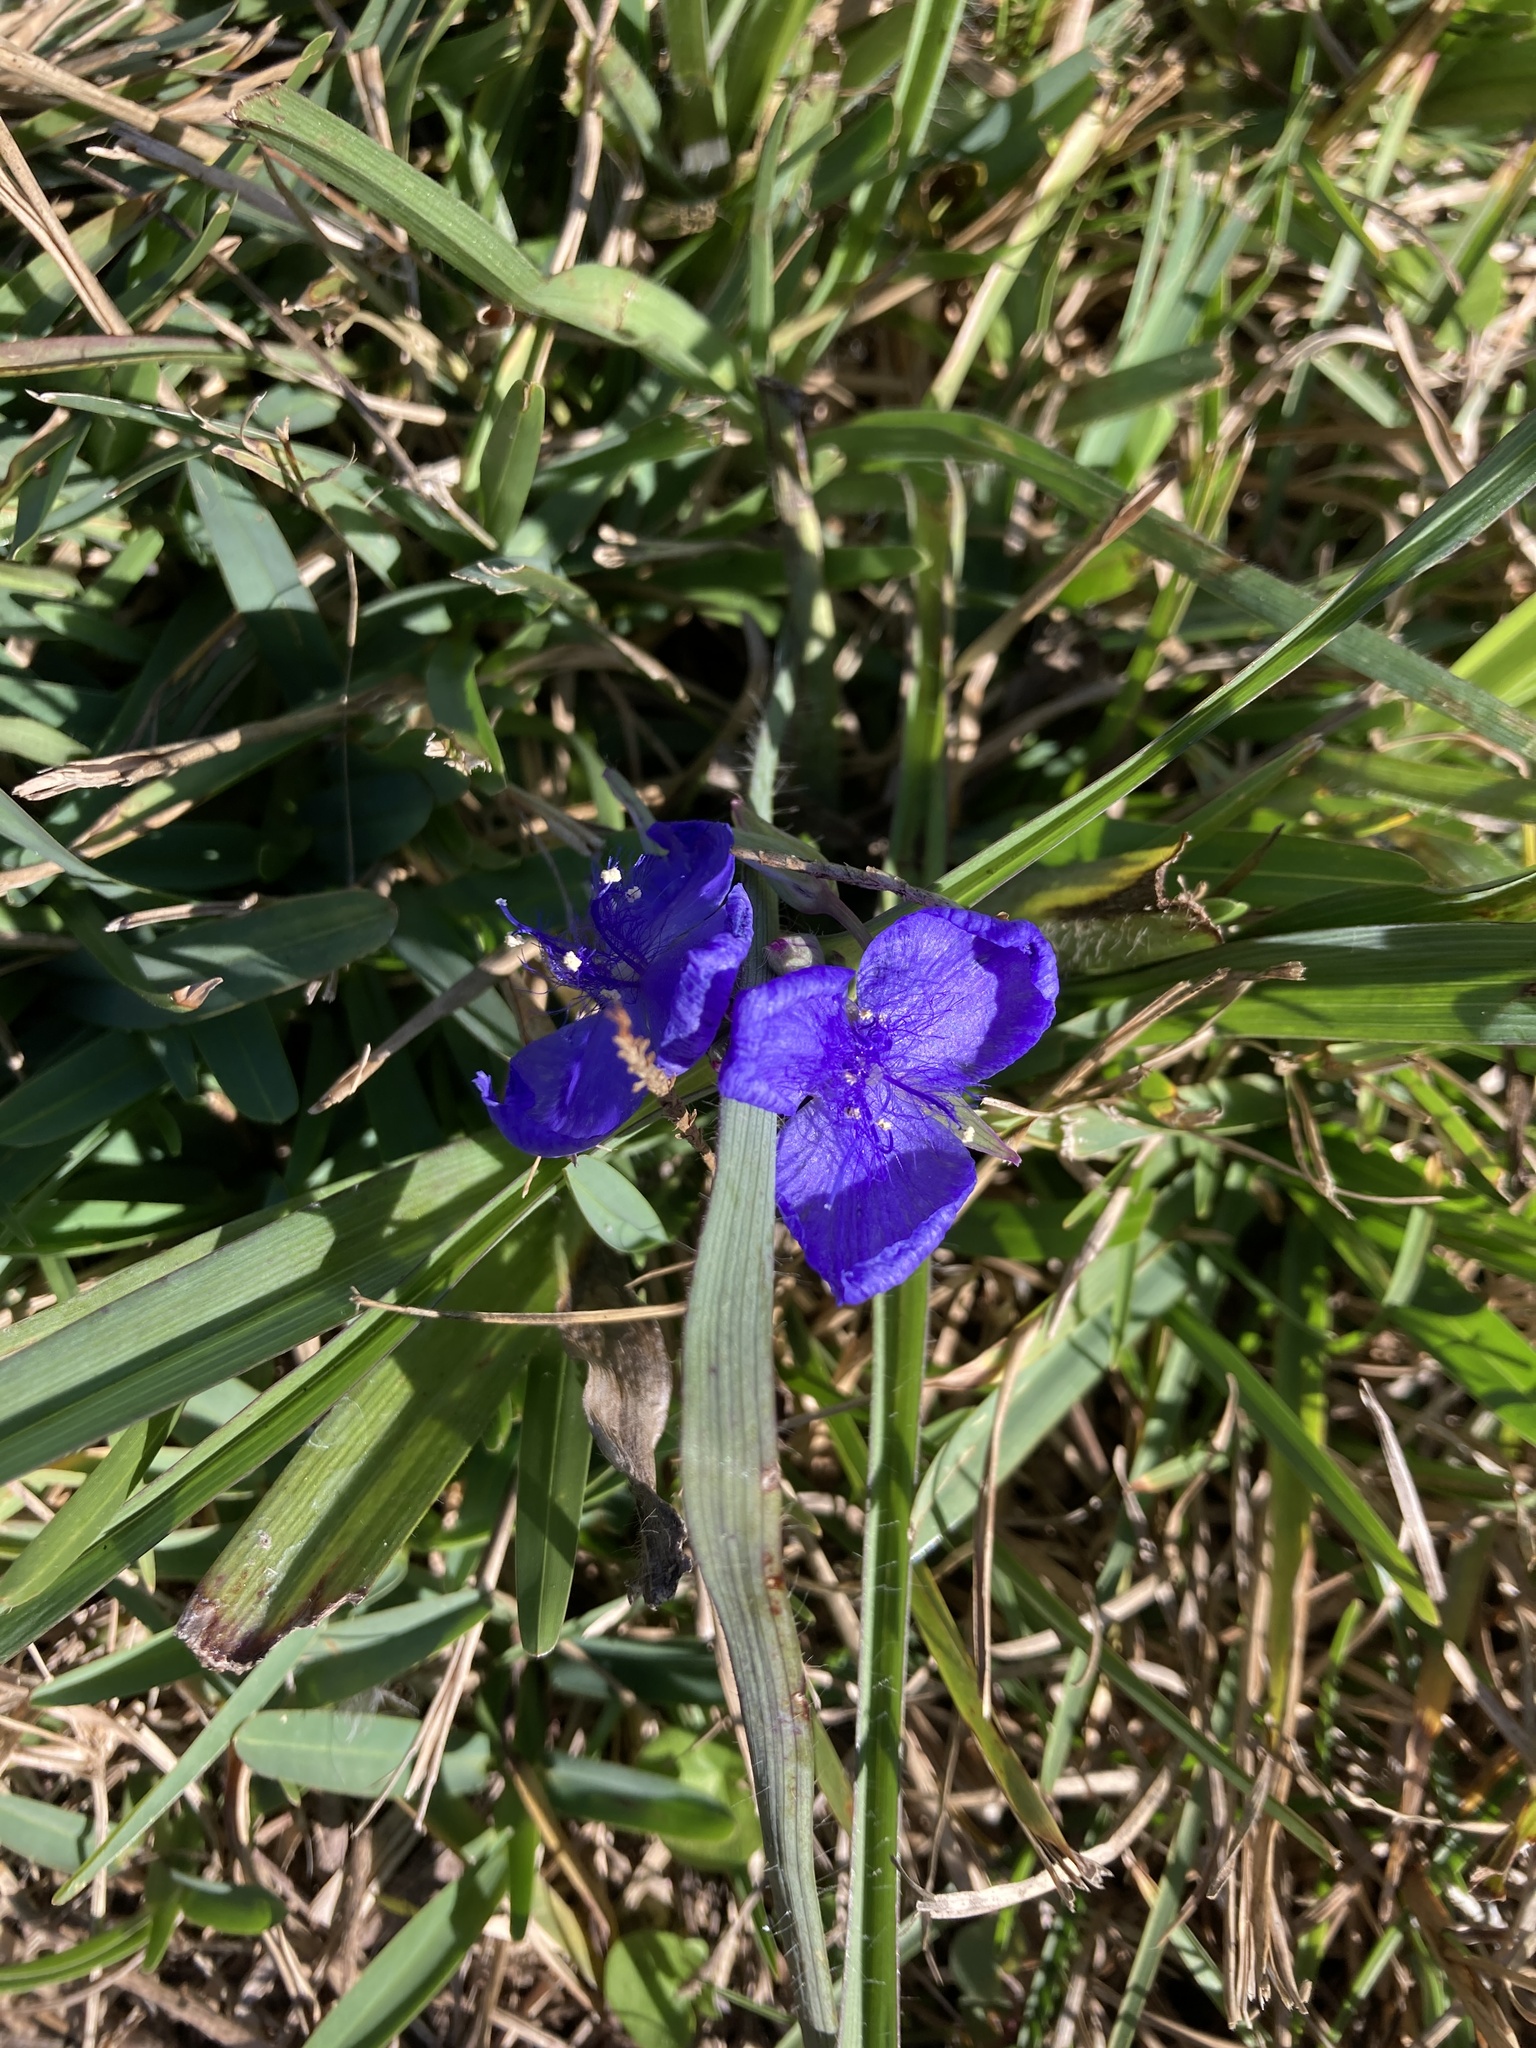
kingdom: Plantae
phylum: Tracheophyta
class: Liliopsida
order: Commelinales
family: Commelinaceae
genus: Tradescantia
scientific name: Tradescantia ohiensis
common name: Ohio spiderwort
